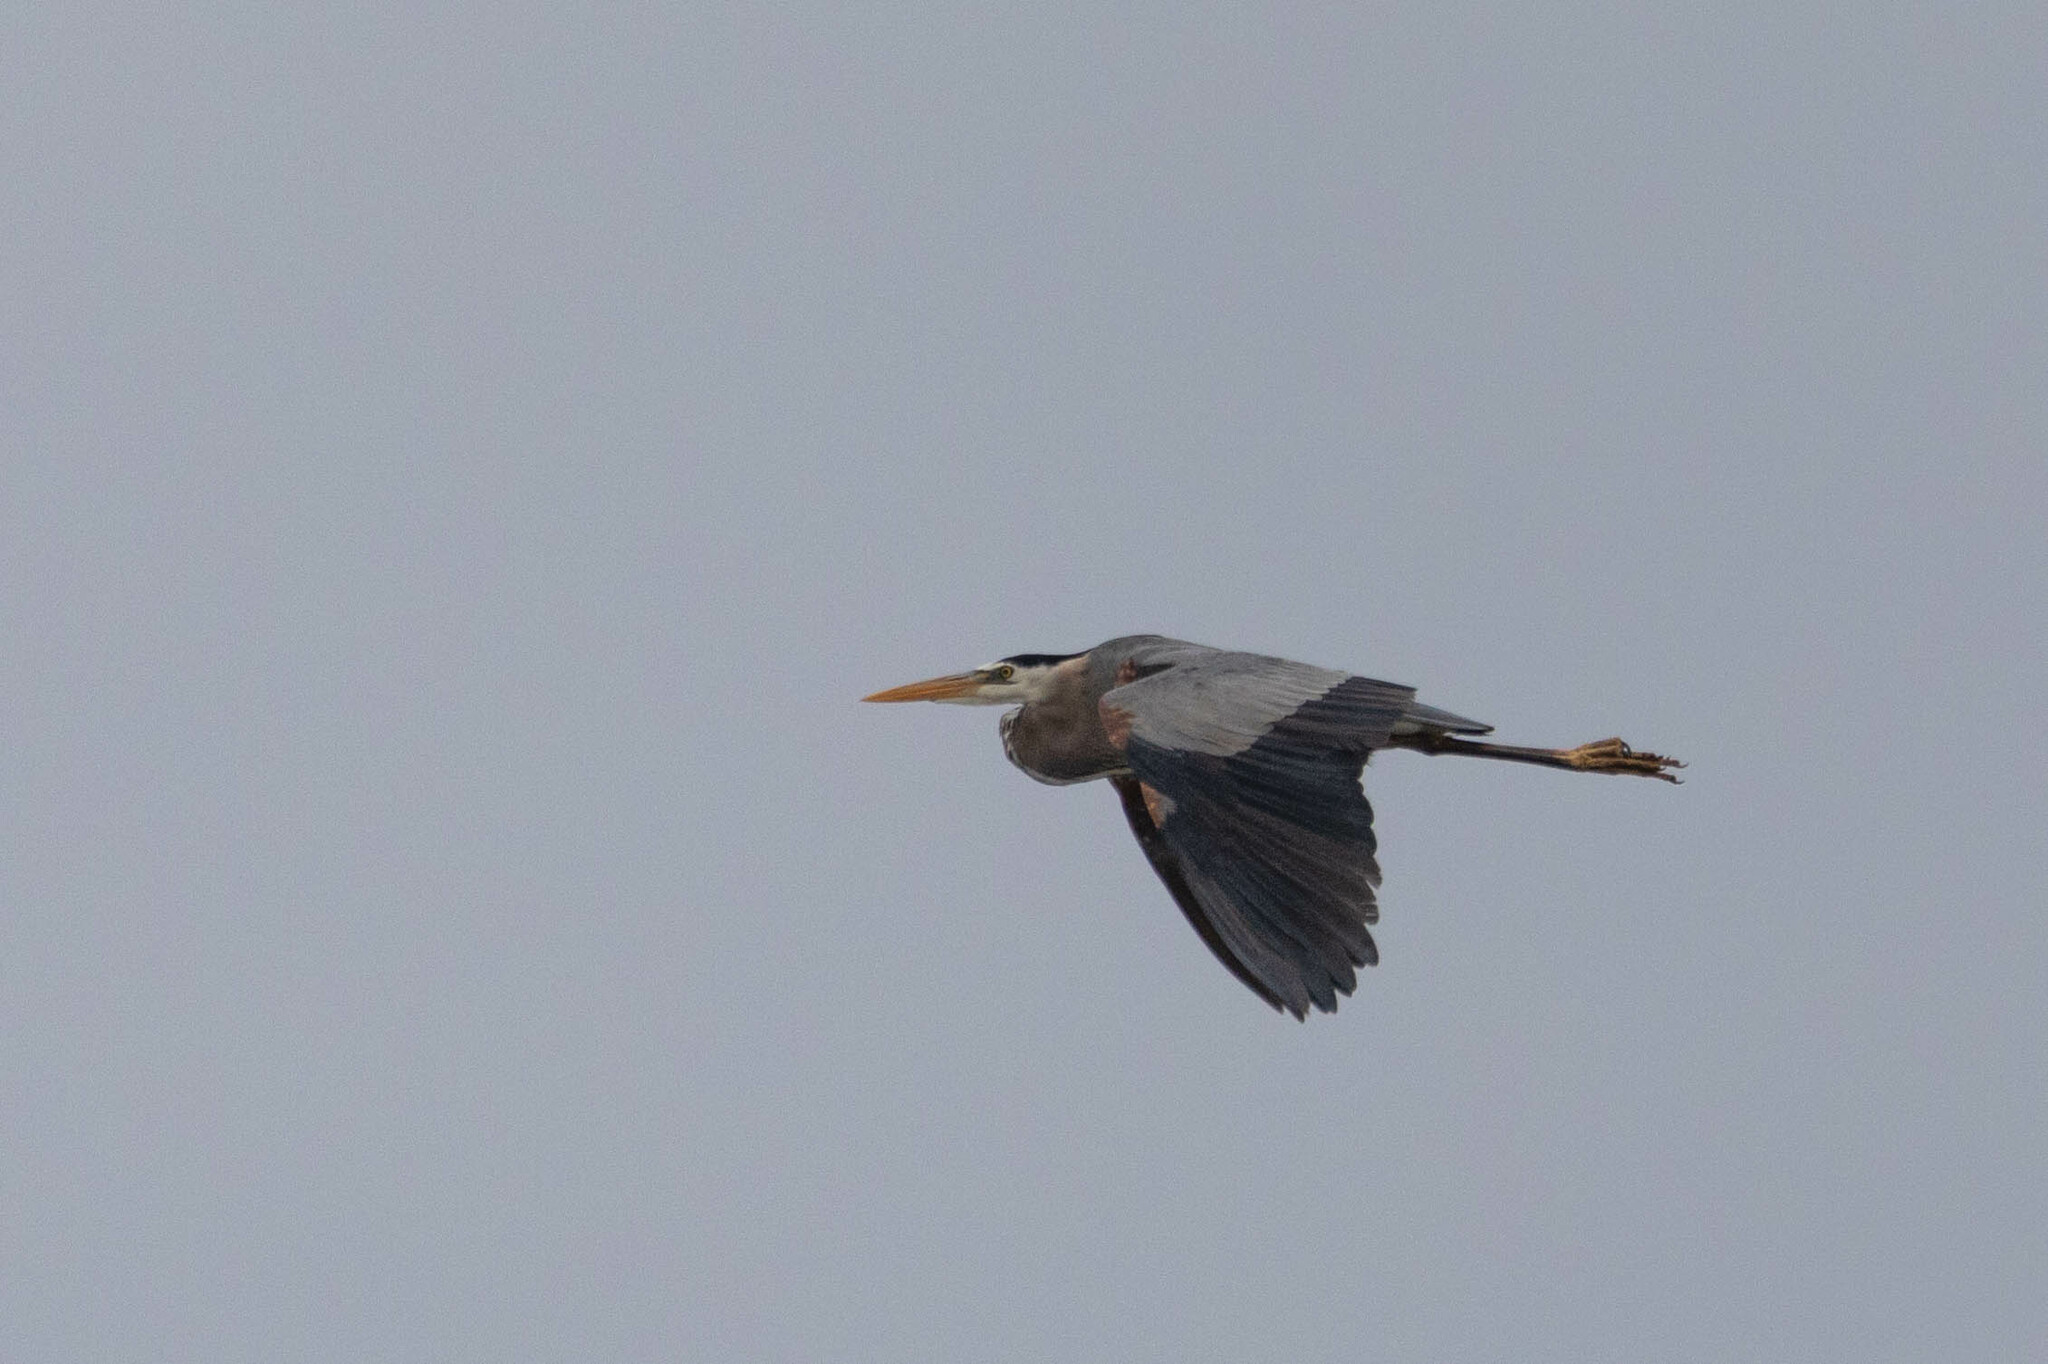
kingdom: Animalia
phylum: Chordata
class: Aves
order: Pelecaniformes
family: Ardeidae
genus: Ardea
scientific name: Ardea herodias
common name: Great blue heron
